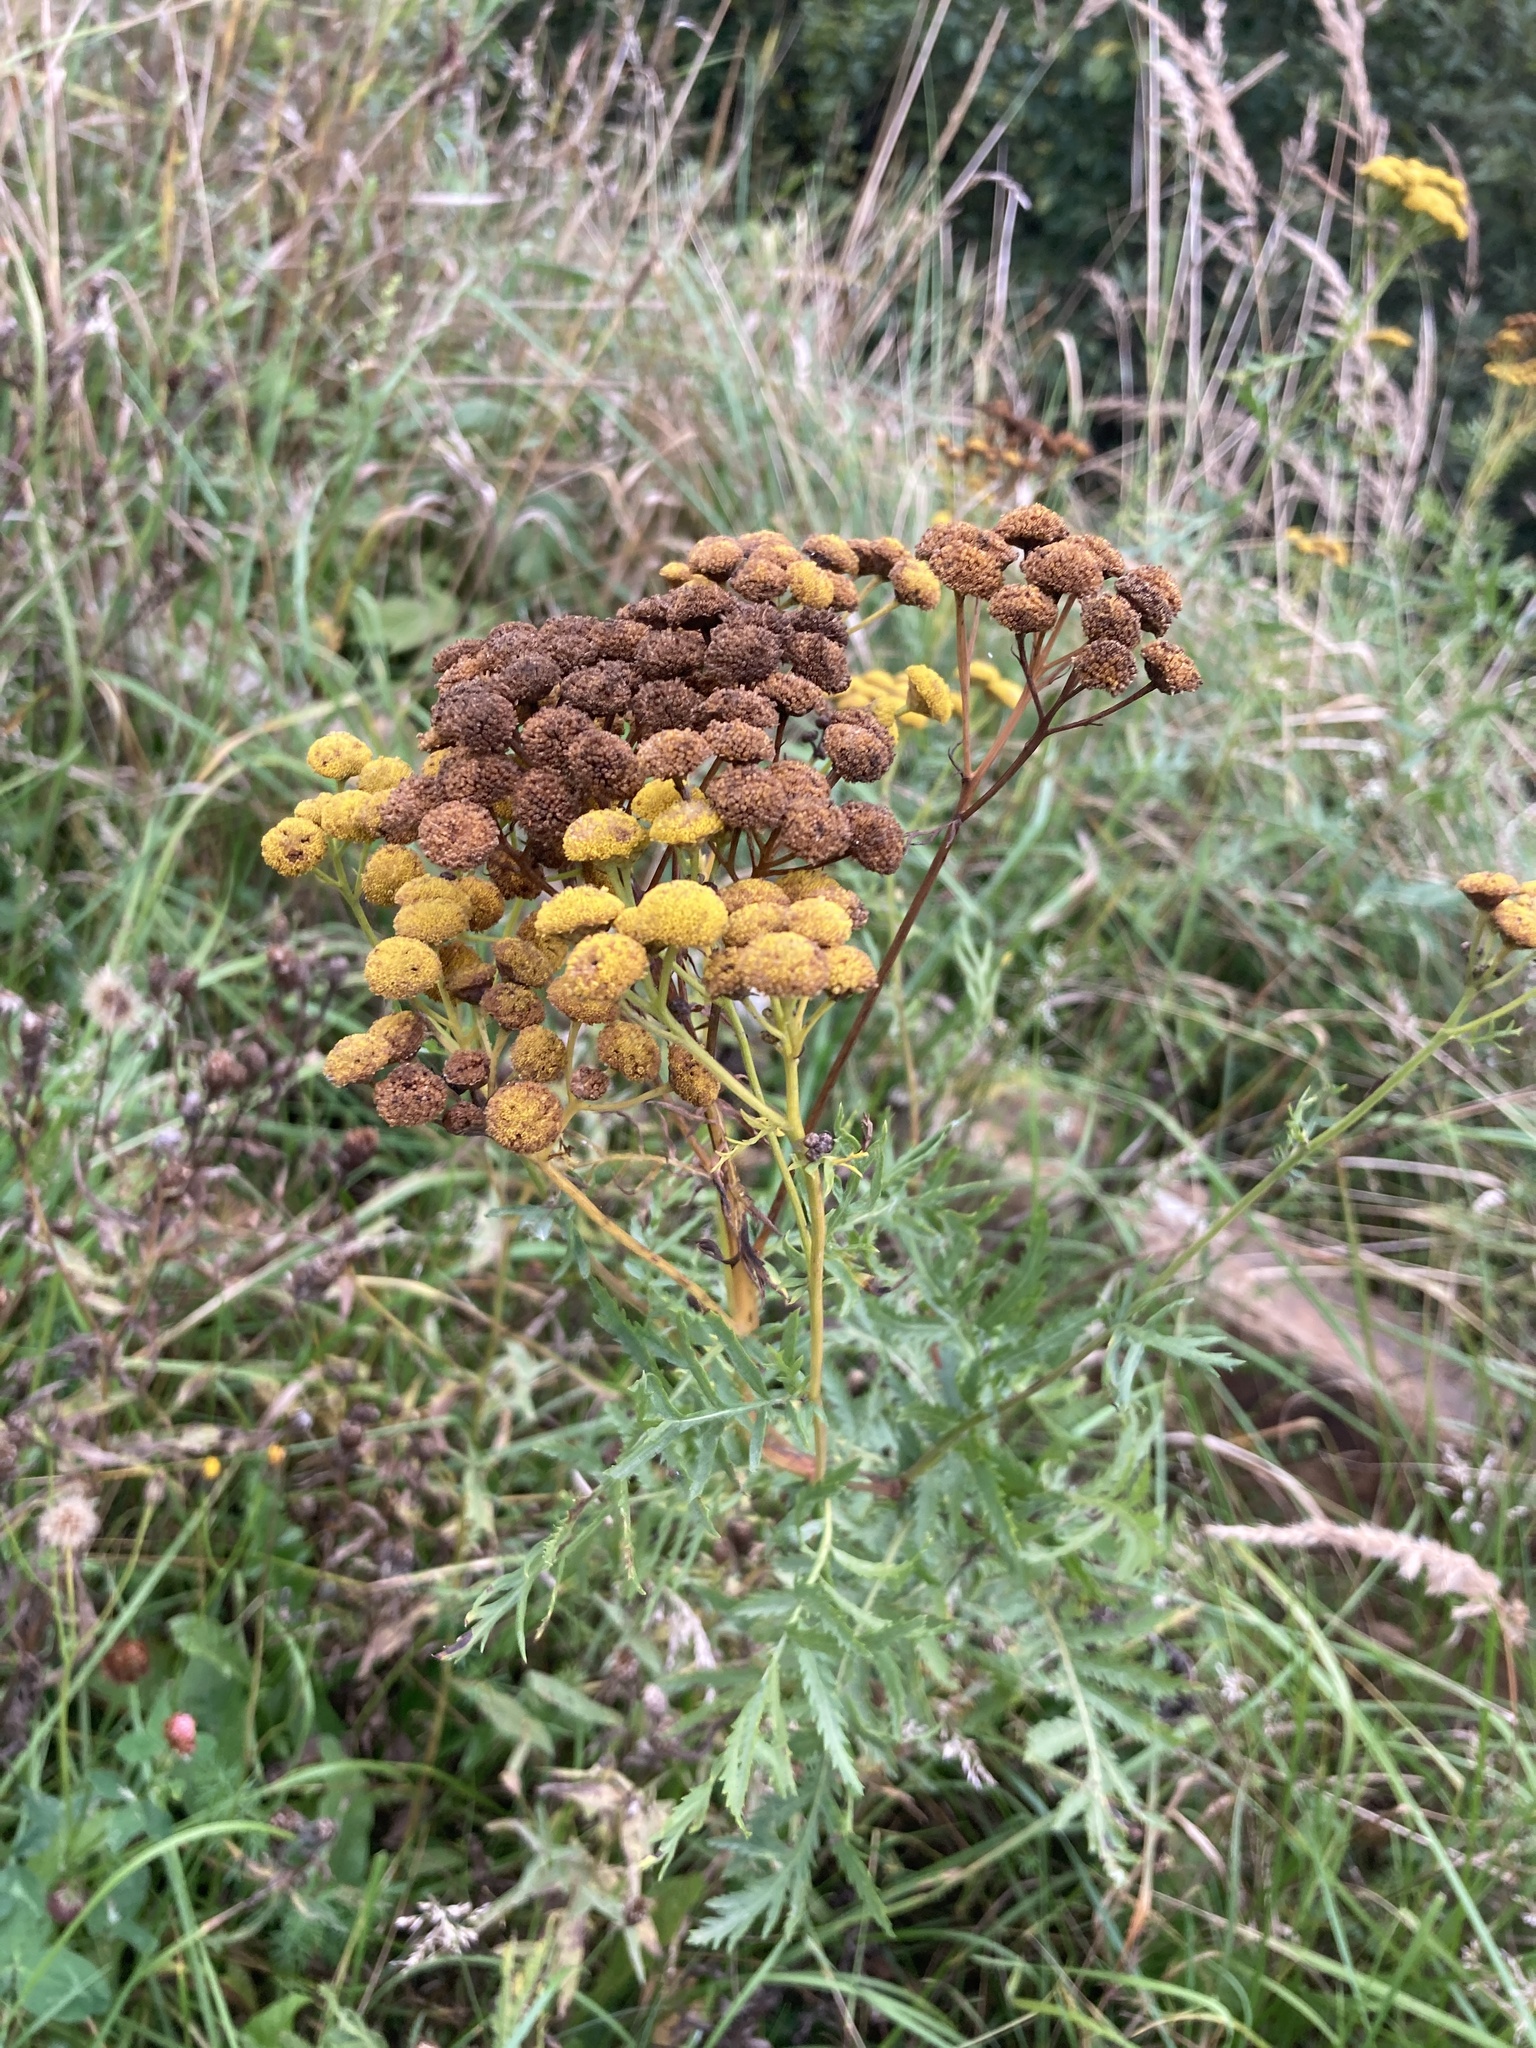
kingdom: Plantae
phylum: Tracheophyta
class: Magnoliopsida
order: Asterales
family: Asteraceae
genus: Tanacetum
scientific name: Tanacetum vulgare
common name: Common tansy
